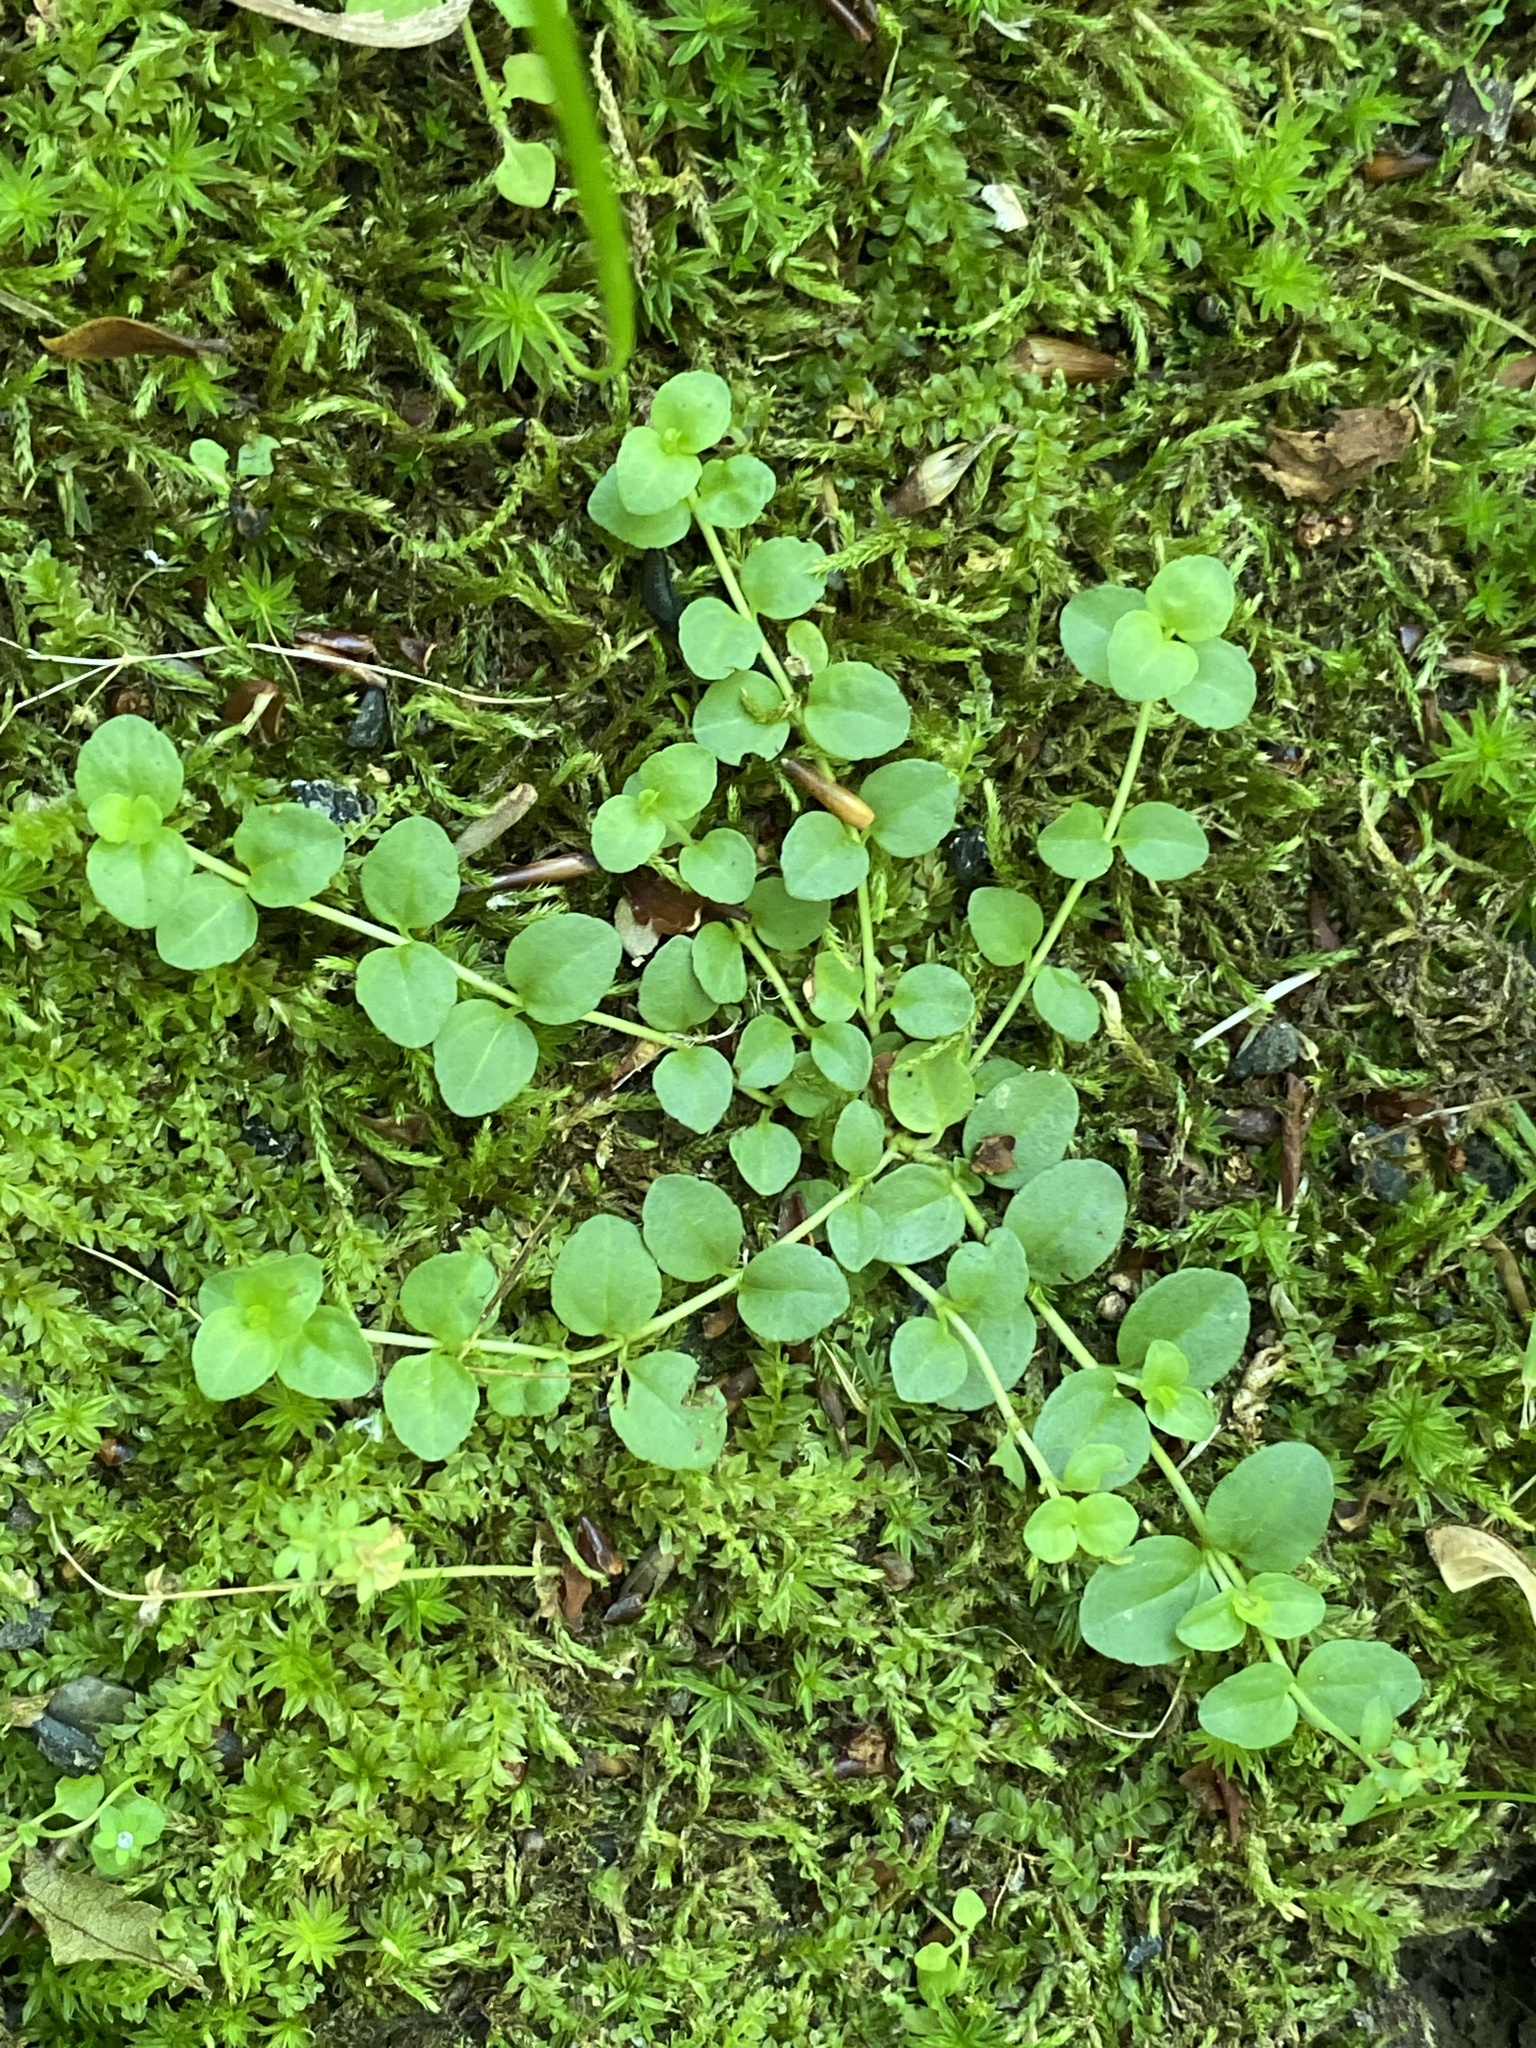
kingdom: Plantae
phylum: Tracheophyta
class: Magnoliopsida
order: Lamiales
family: Plantaginaceae
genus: Veronica
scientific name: Veronica serpyllifolia
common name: Thyme-leaved speedwell
